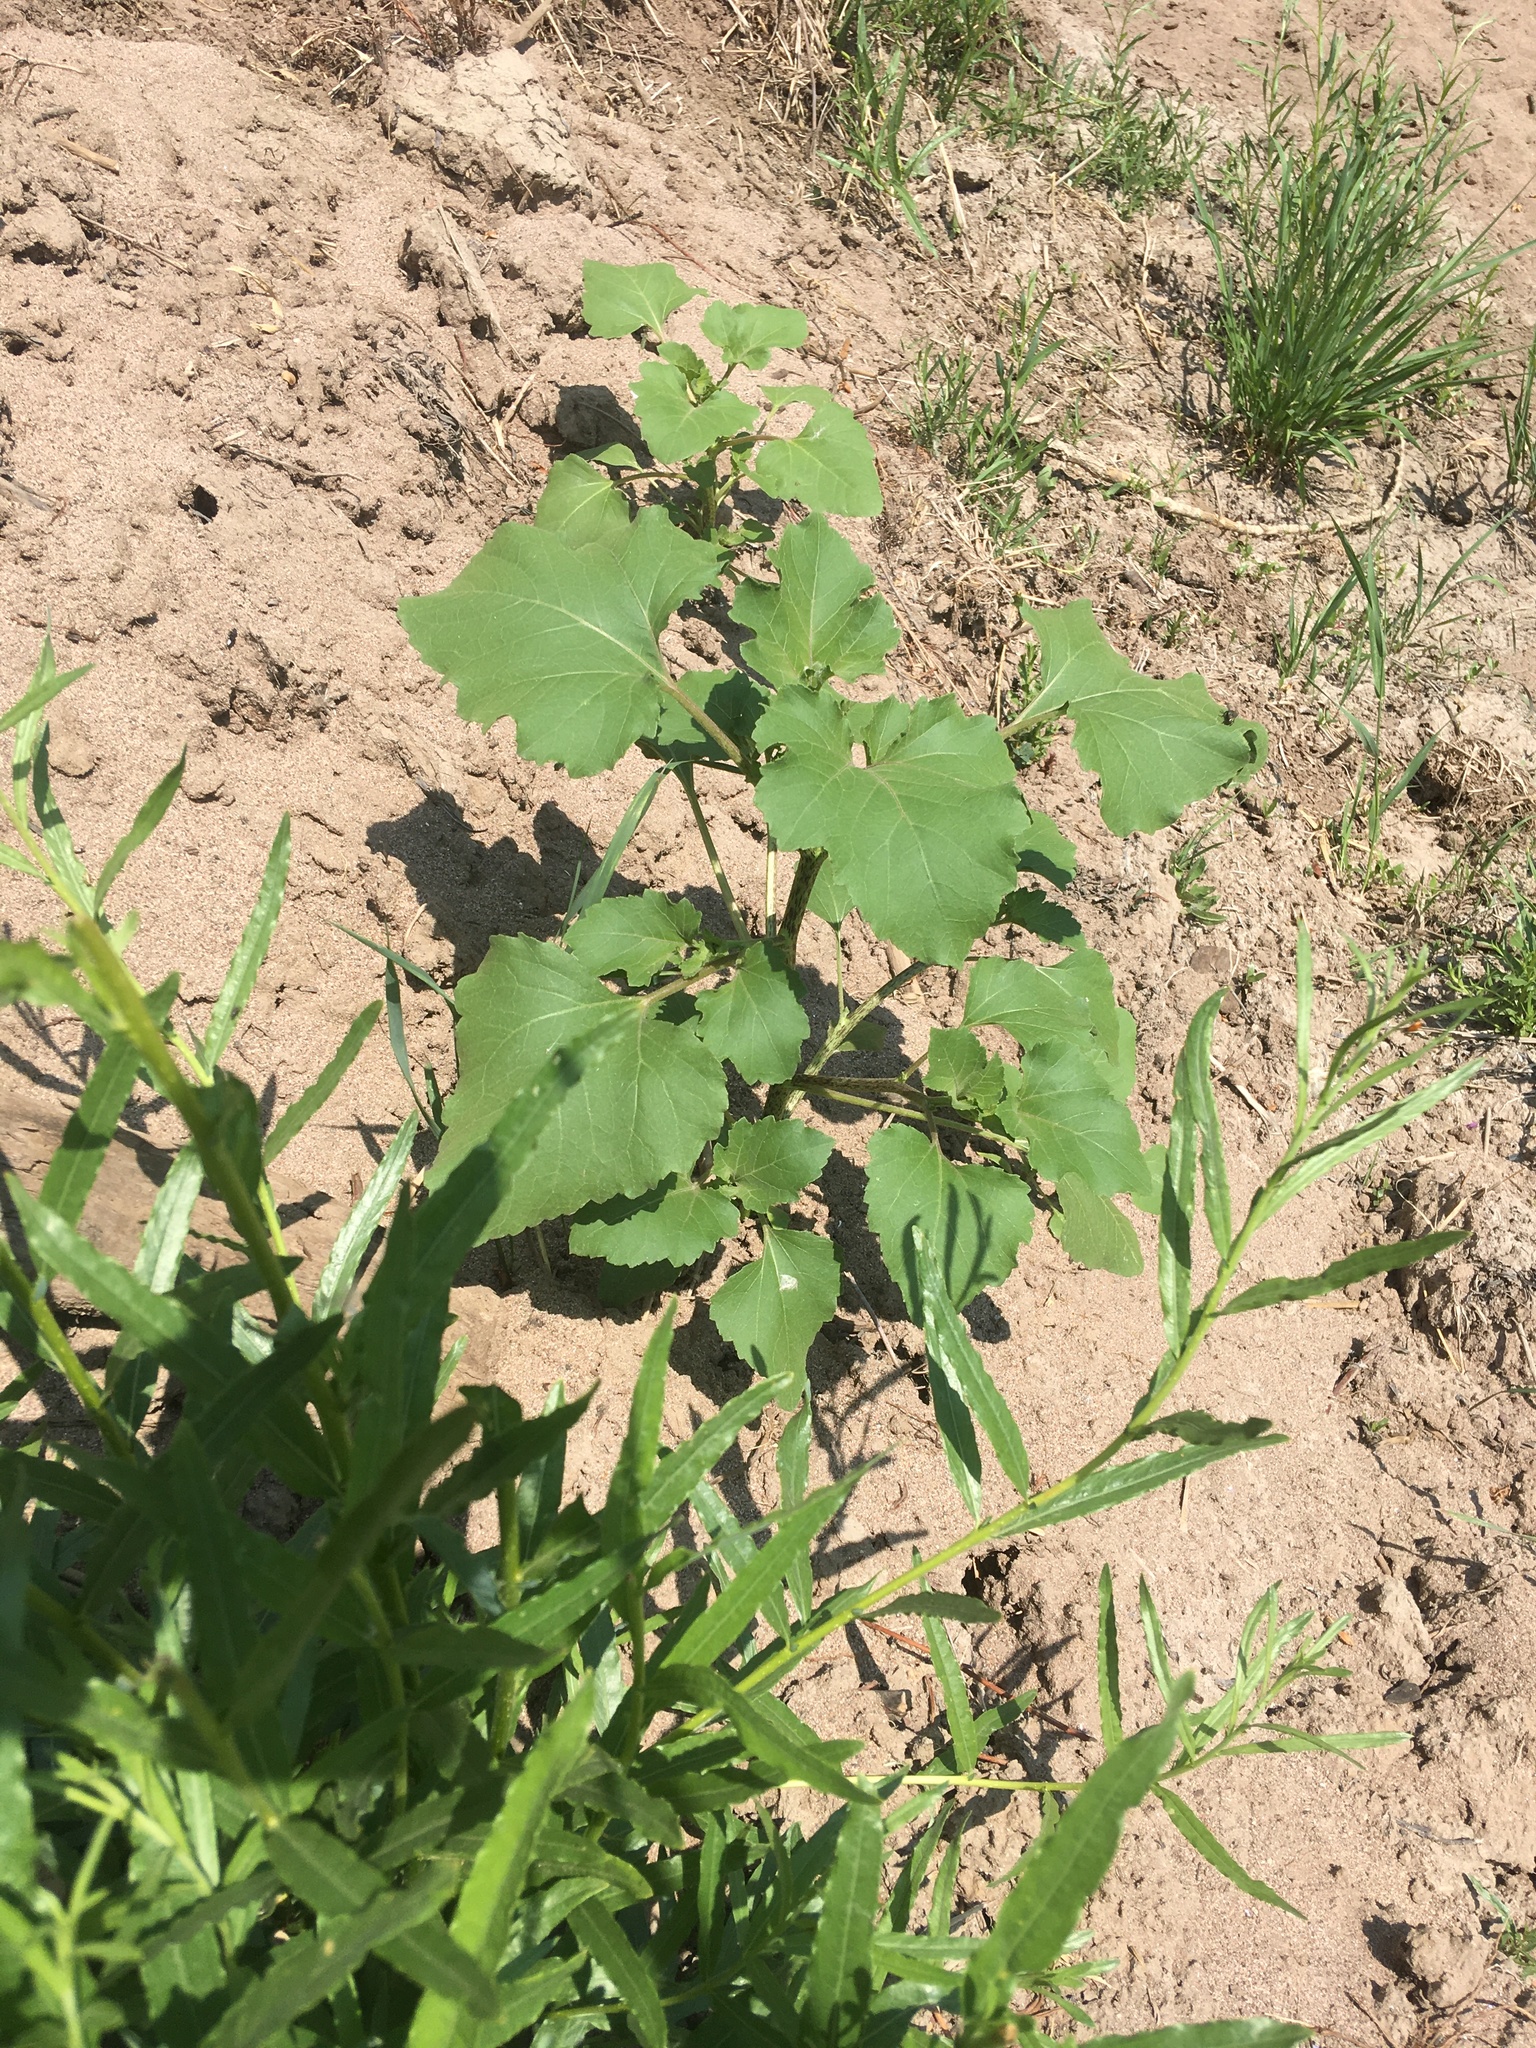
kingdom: Plantae
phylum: Tracheophyta
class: Magnoliopsida
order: Asterales
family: Asteraceae
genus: Xanthium
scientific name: Xanthium strumarium
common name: Rough cocklebur
